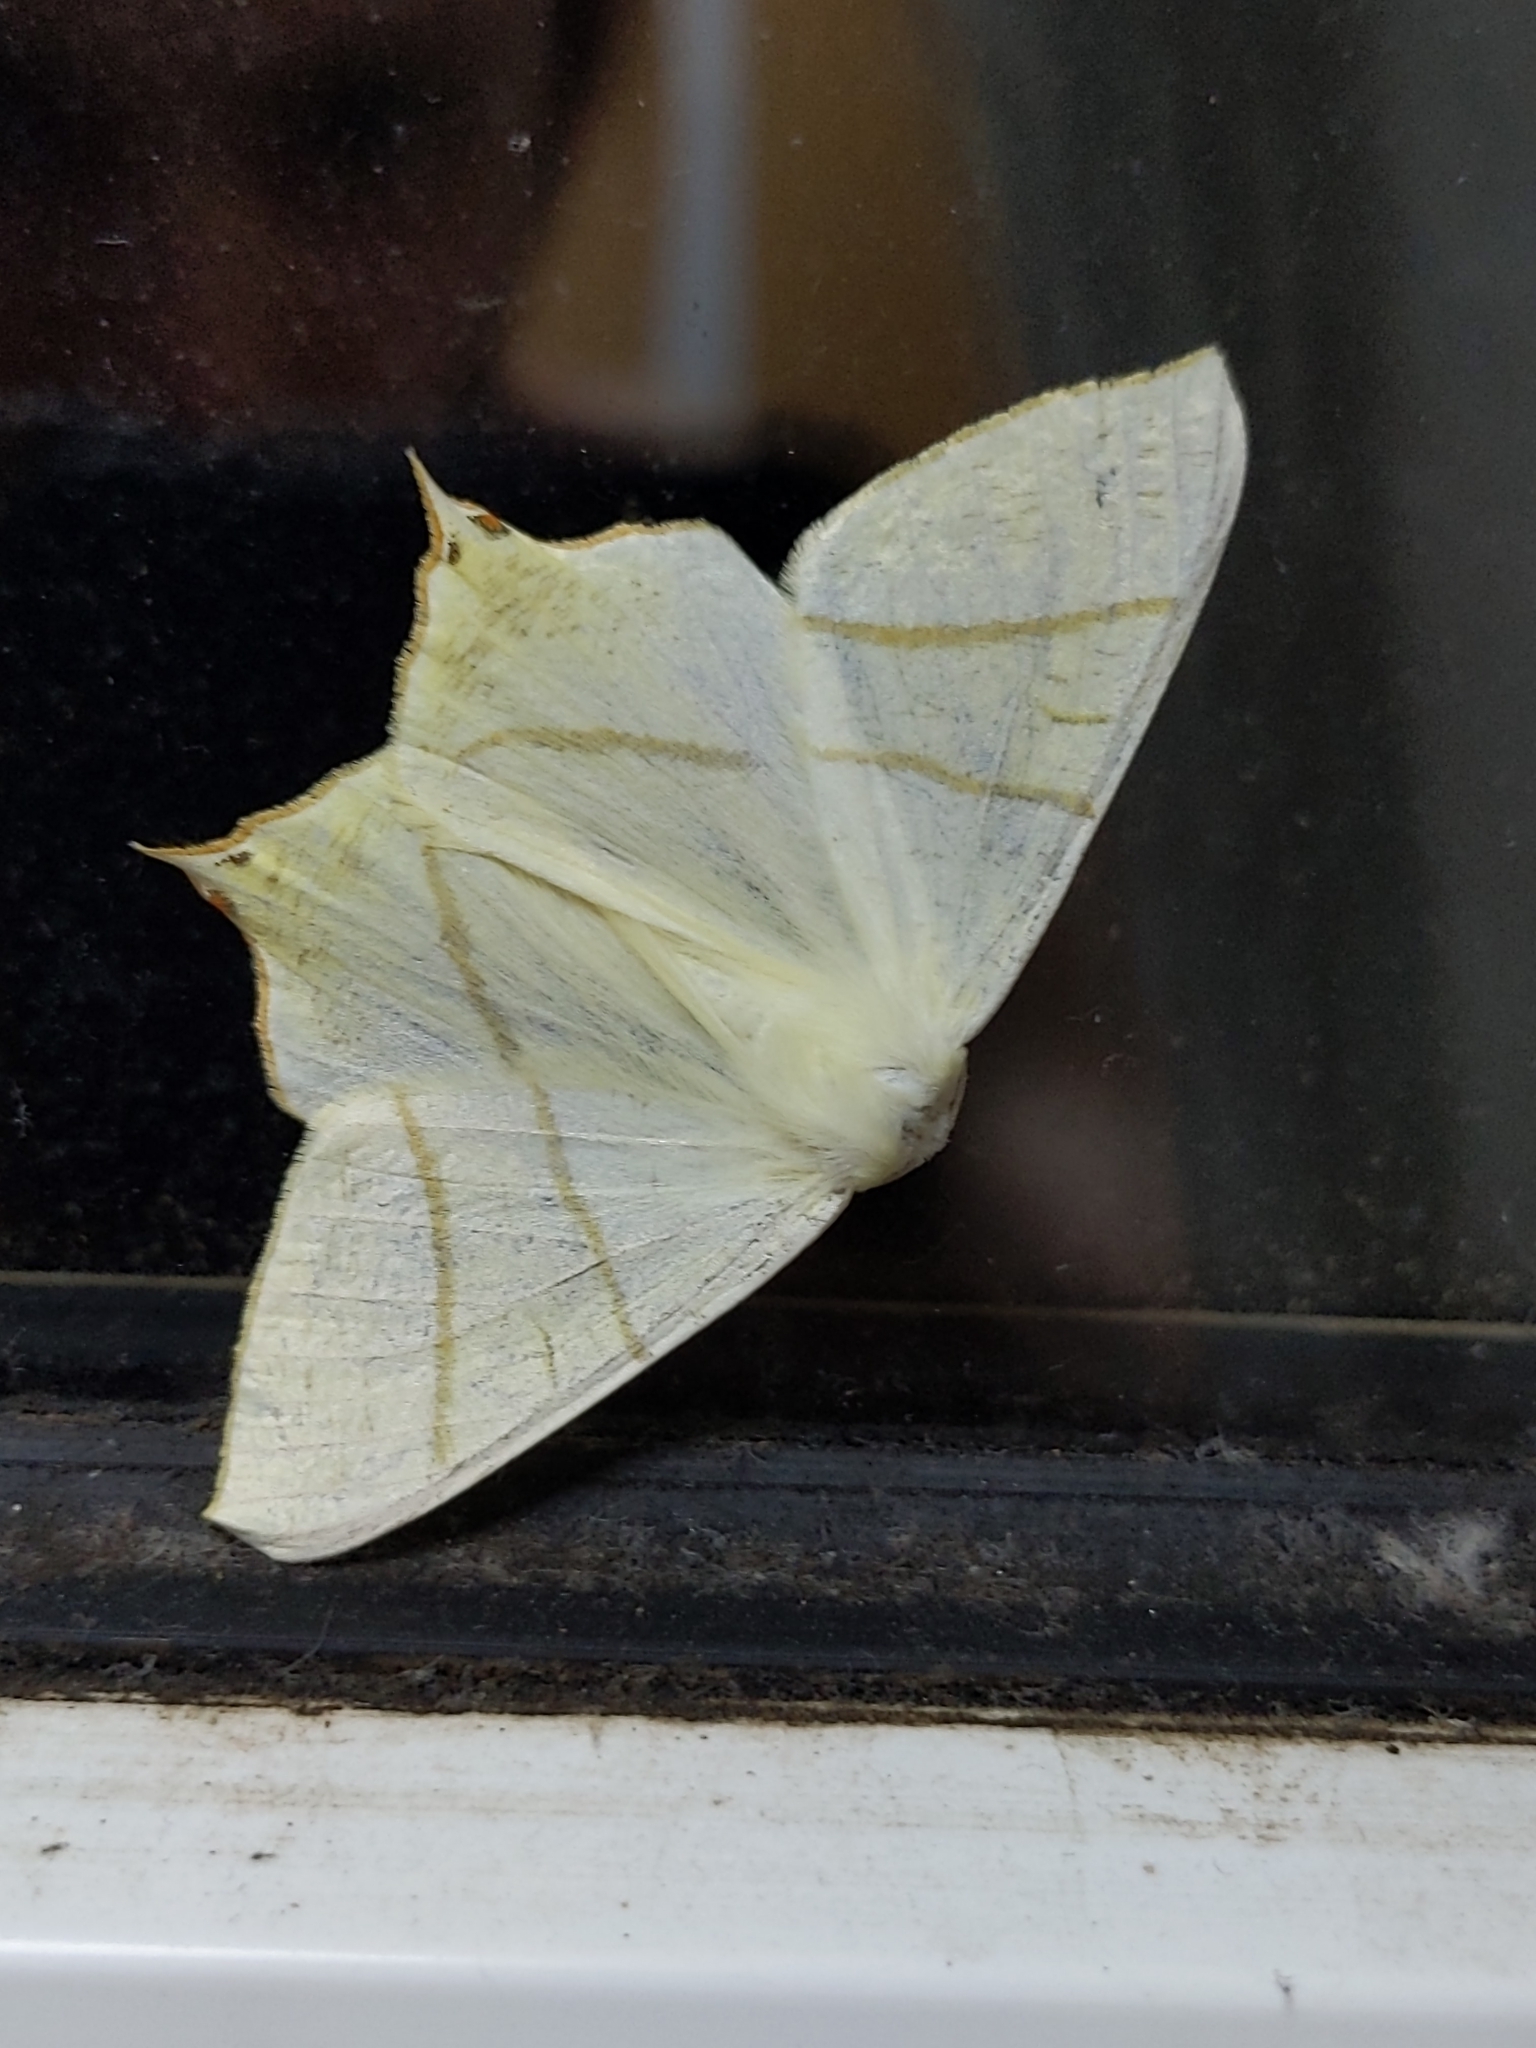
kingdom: Animalia
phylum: Arthropoda
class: Insecta
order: Lepidoptera
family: Geometridae
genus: Ourapteryx
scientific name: Ourapteryx sambucaria
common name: Swallow-tailed moth
